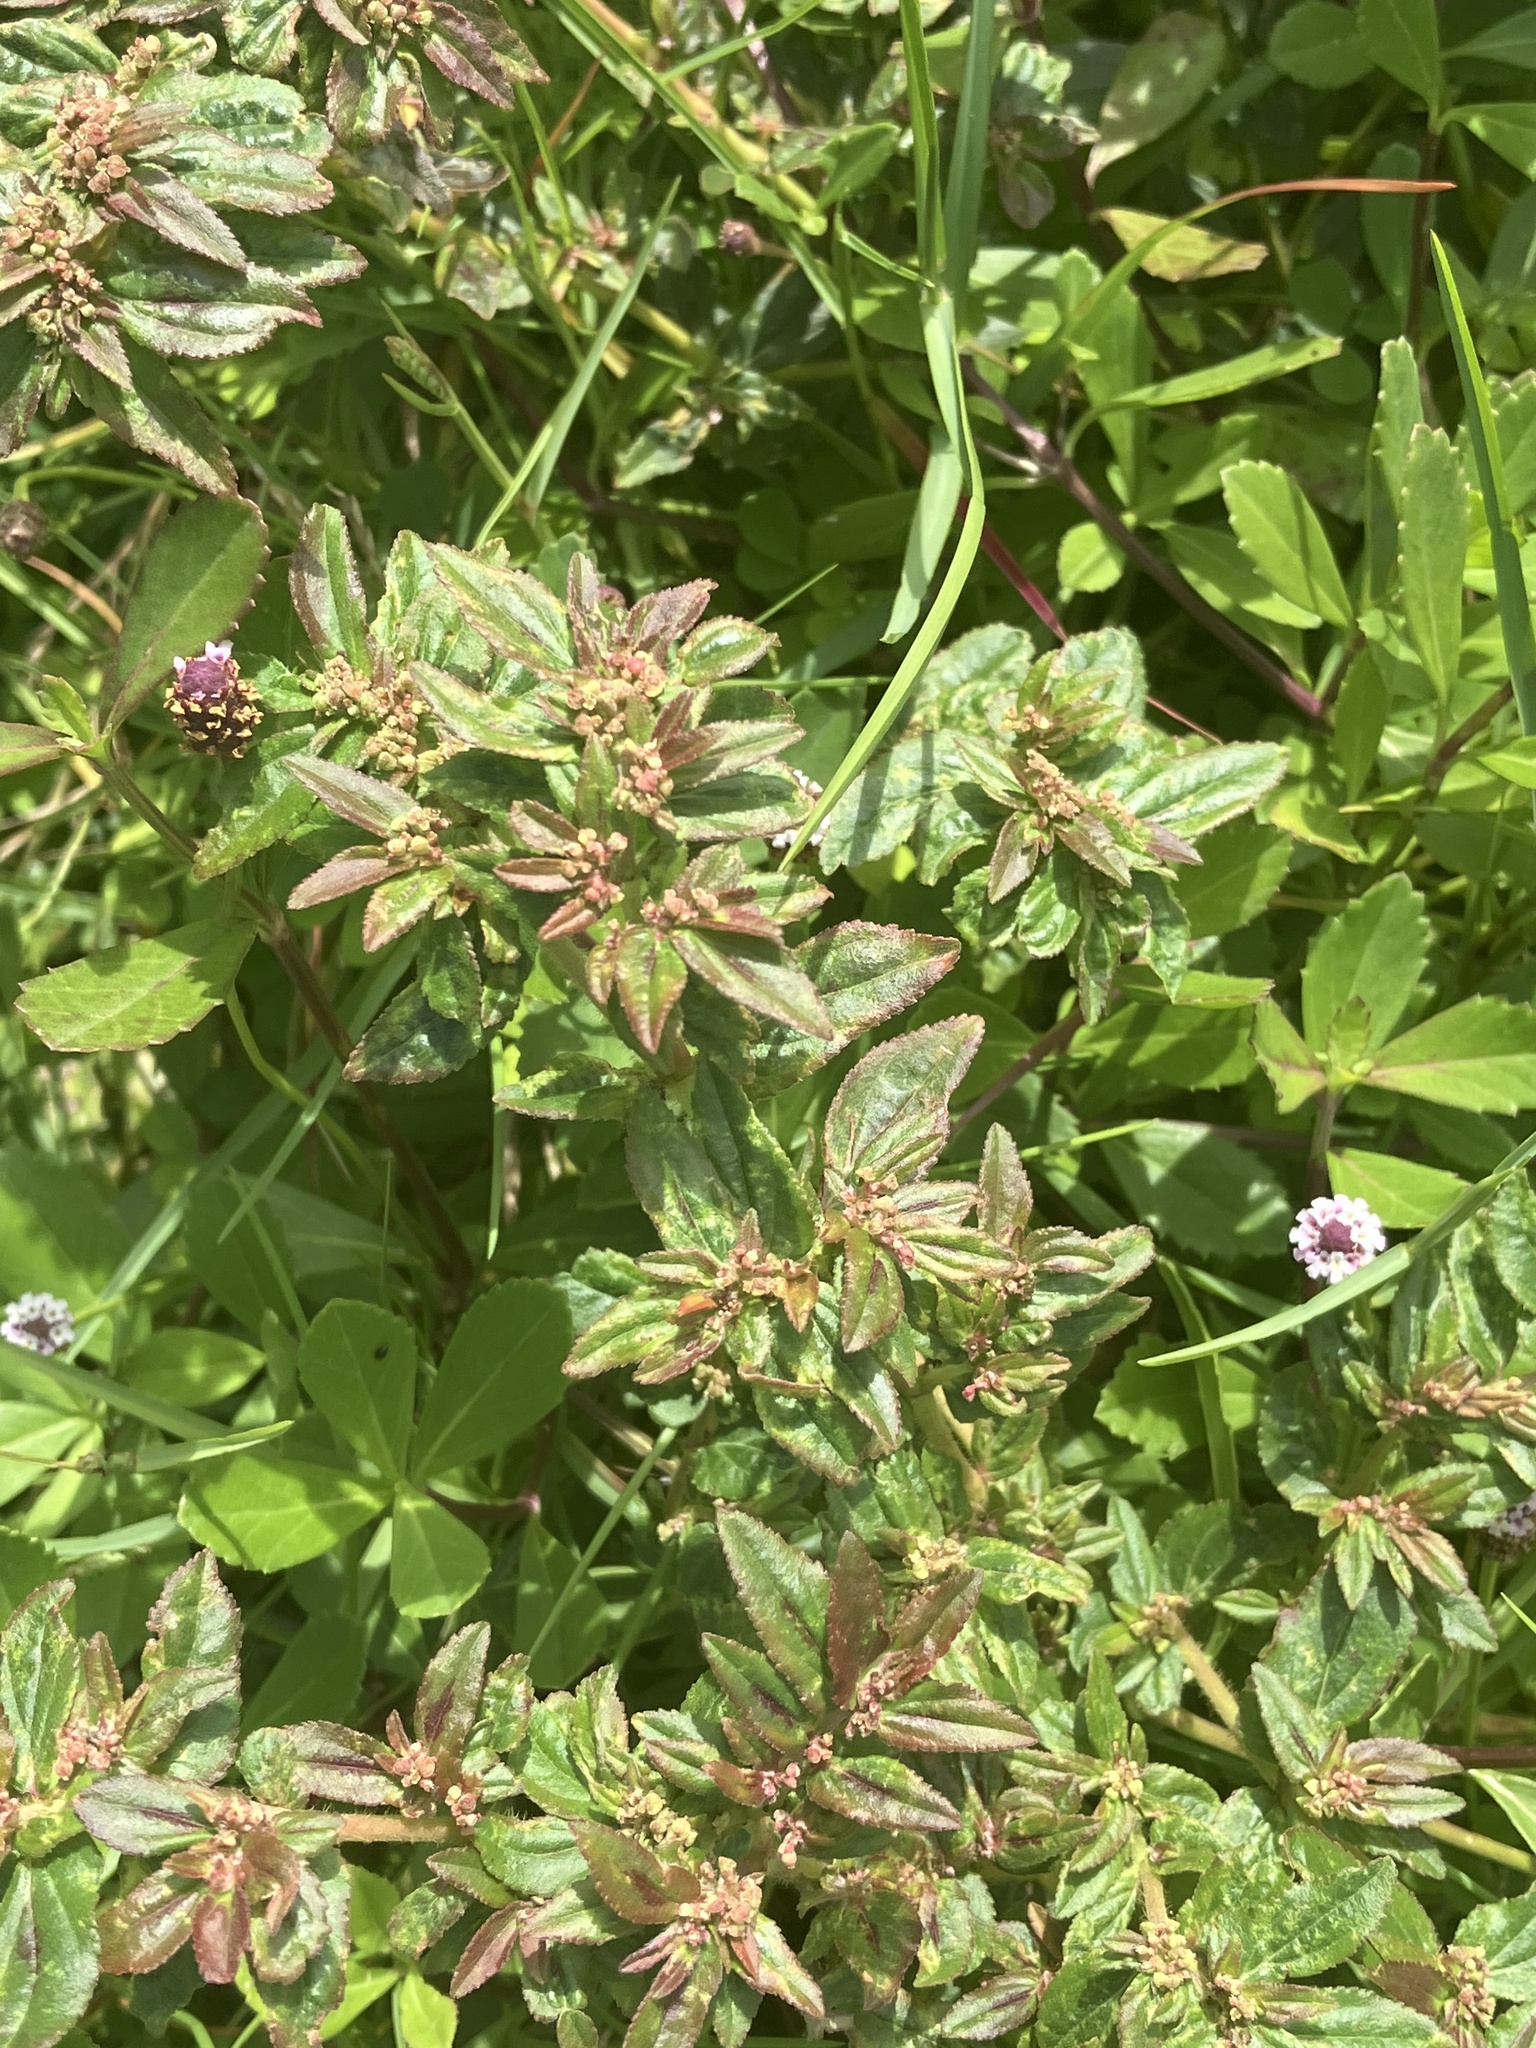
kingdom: Plantae
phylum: Tracheophyta
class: Magnoliopsida
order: Malpighiales
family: Euphorbiaceae
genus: Euphorbia
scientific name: Euphorbia hirta
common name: Pillpod sandmat
